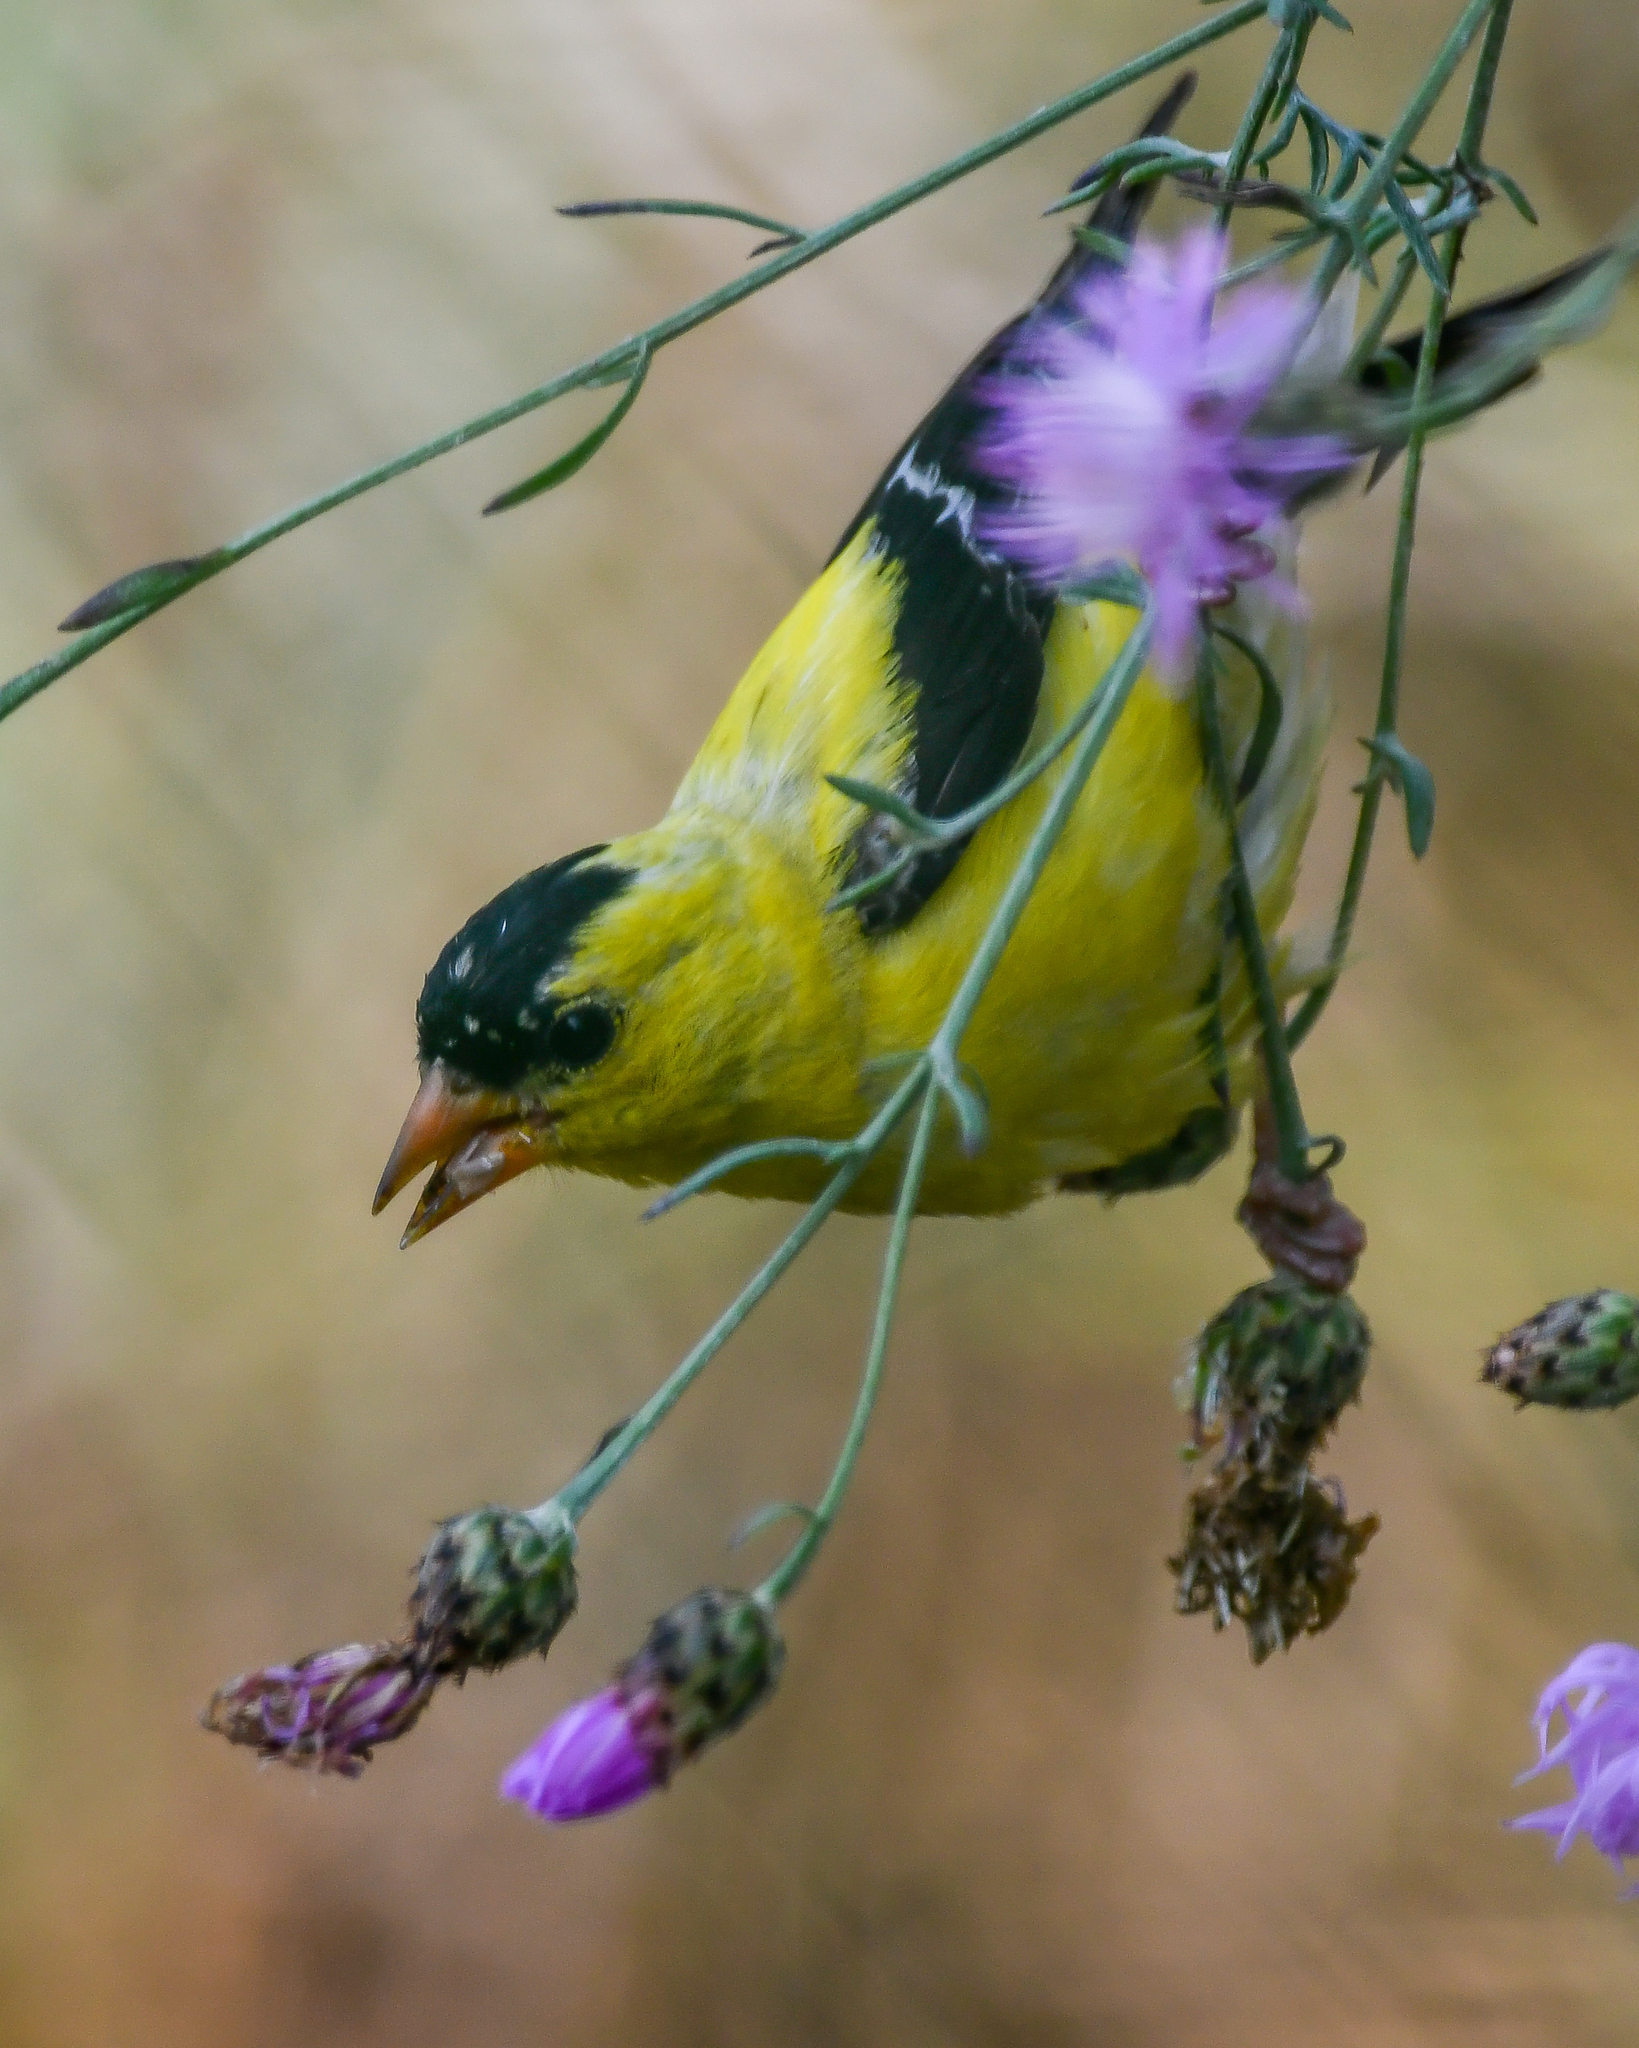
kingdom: Animalia
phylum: Chordata
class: Aves
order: Passeriformes
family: Fringillidae
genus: Spinus
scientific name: Spinus tristis
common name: American goldfinch
